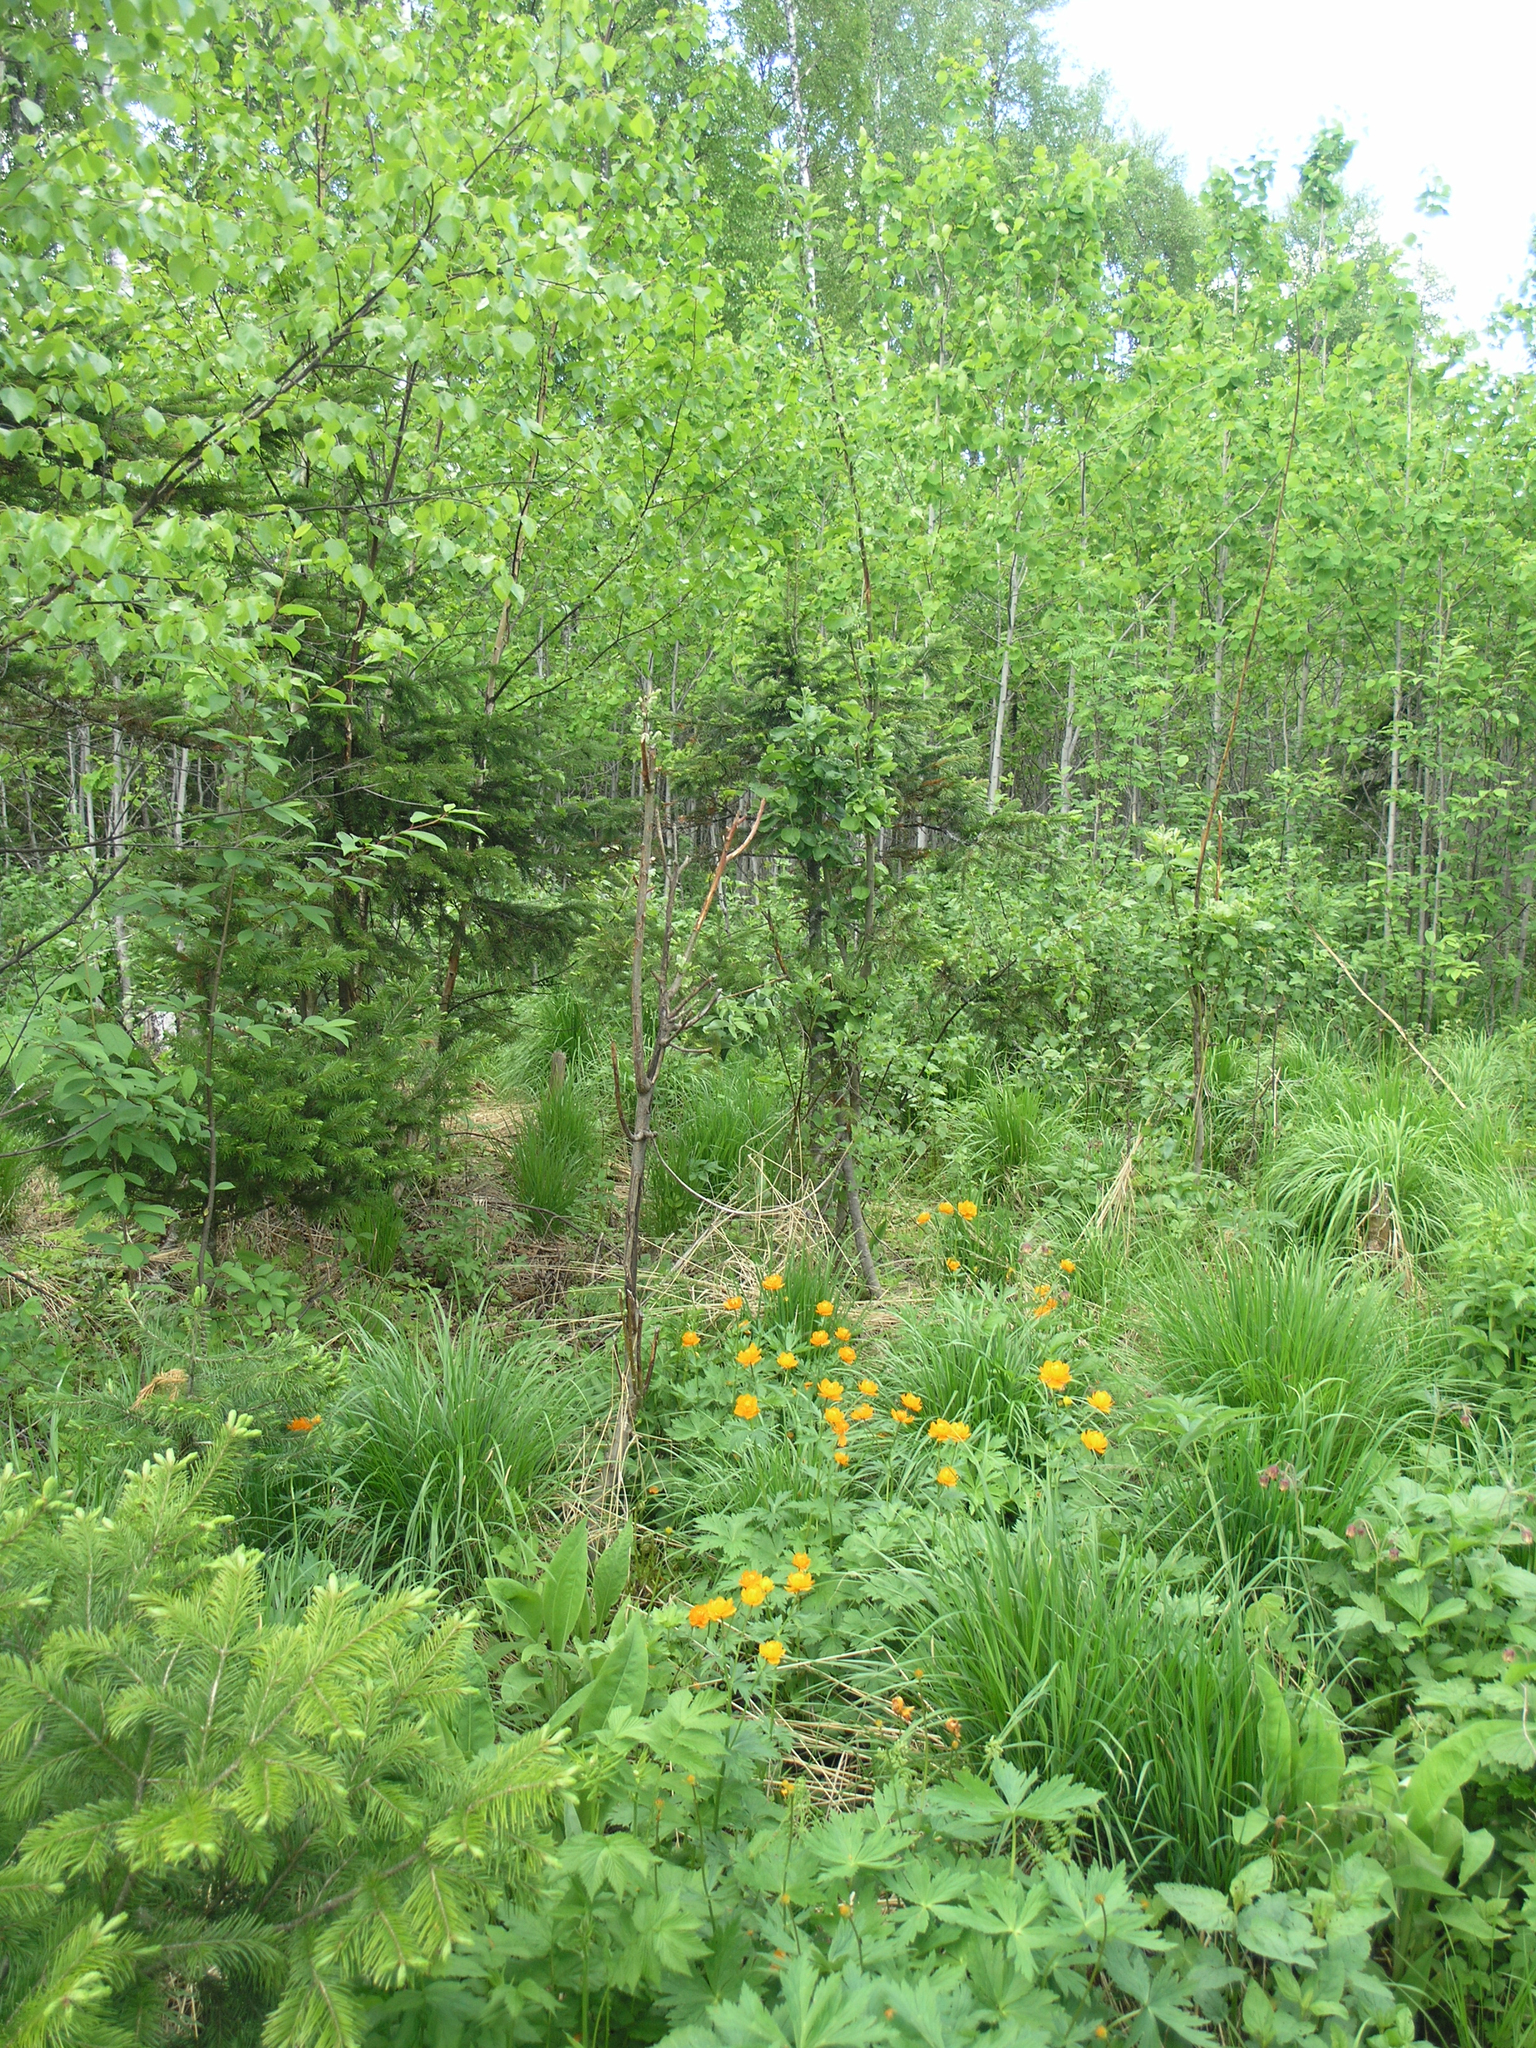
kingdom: Plantae
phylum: Tracheophyta
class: Magnoliopsida
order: Ranunculales
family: Ranunculaceae
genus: Trollius
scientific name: Trollius asiaticus
